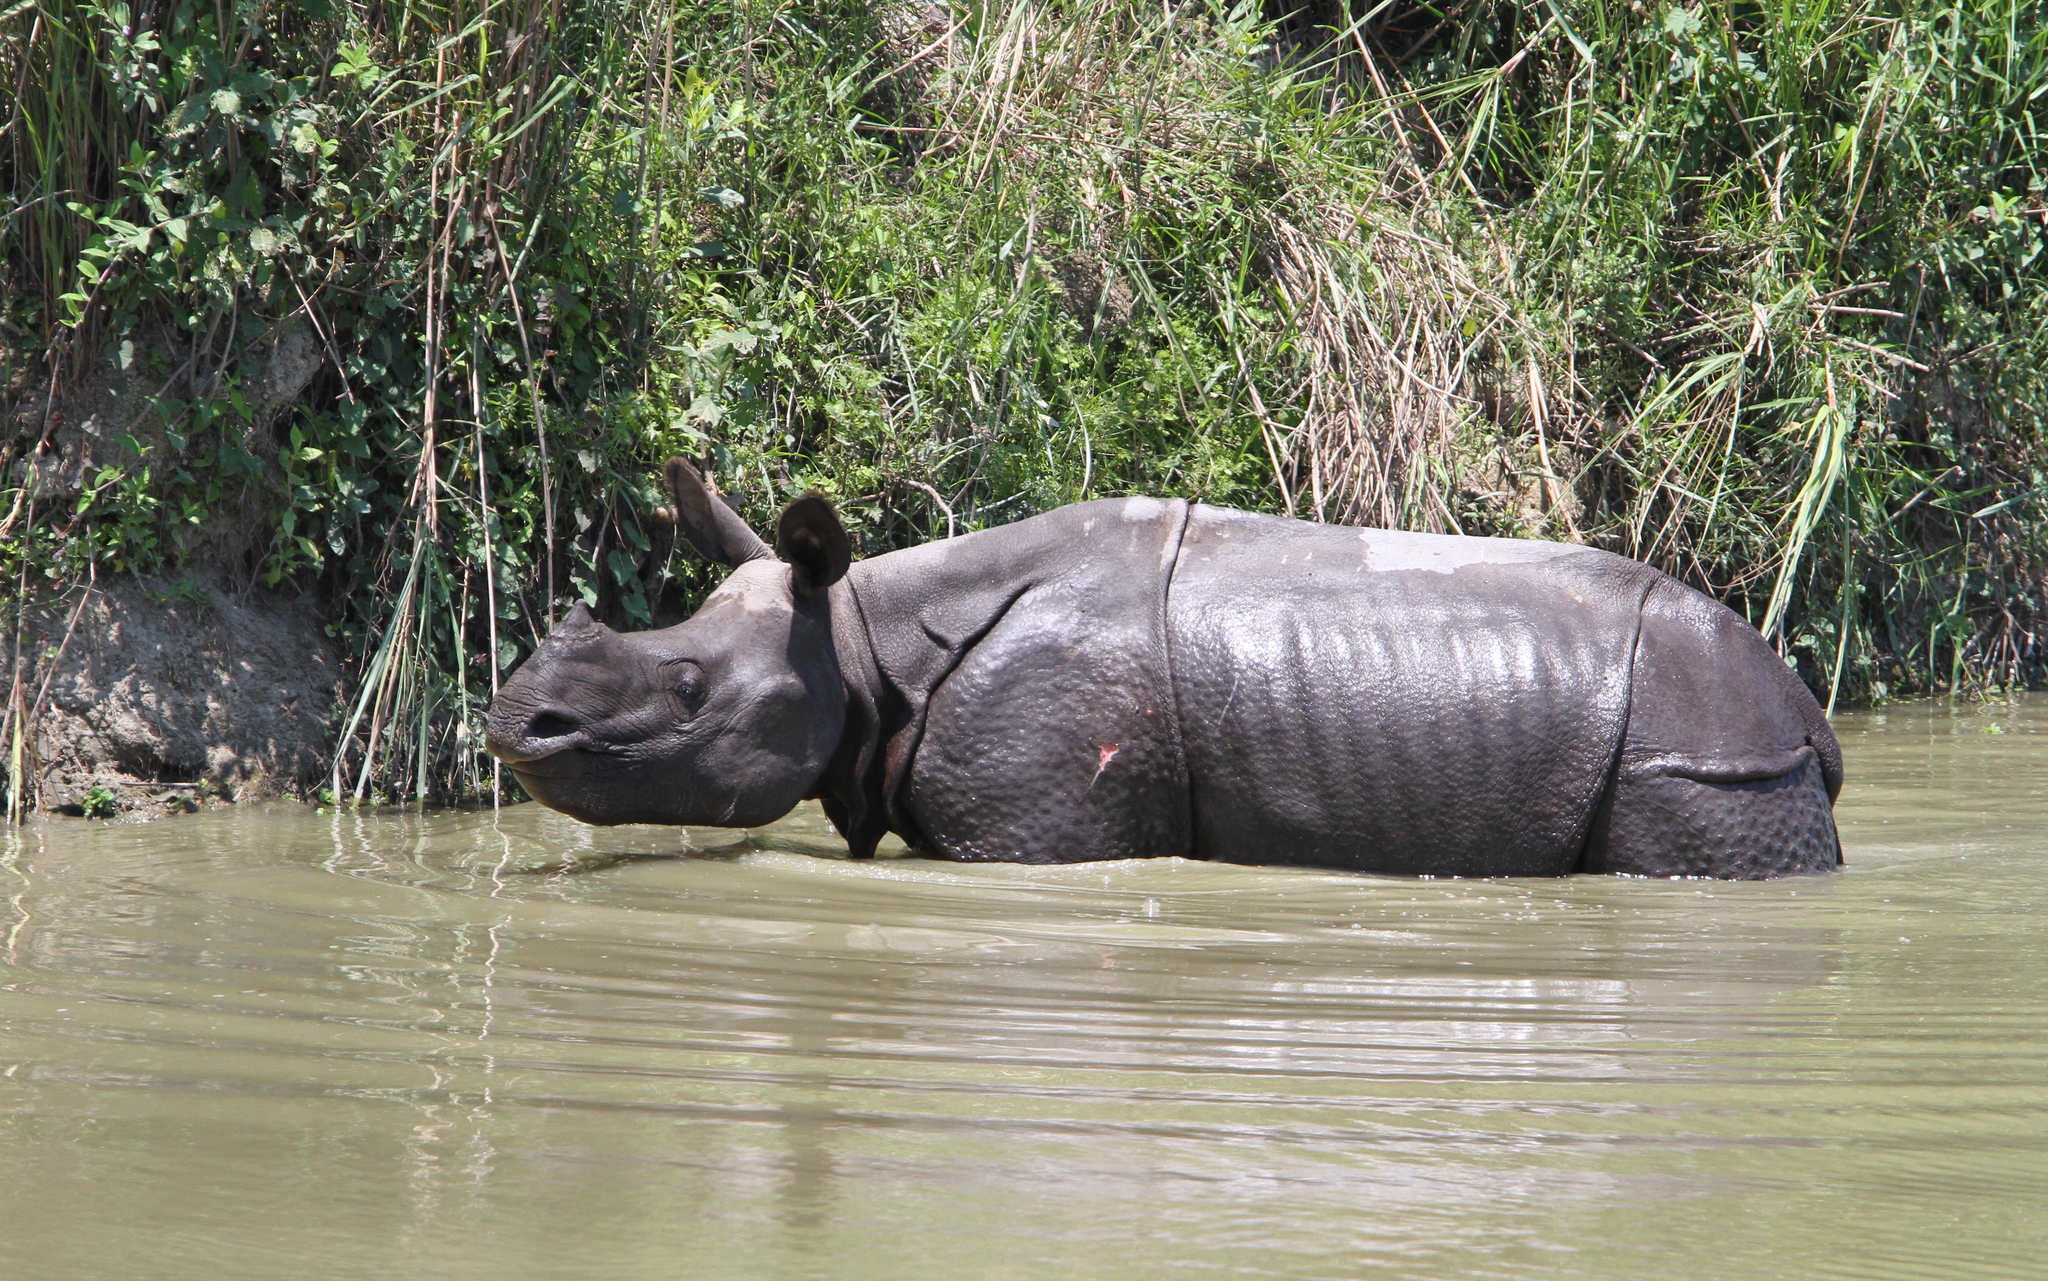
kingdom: Animalia
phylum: Chordata
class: Mammalia
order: Perissodactyla
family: Rhinocerotidae
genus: Rhinoceros
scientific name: Rhinoceros unicornis
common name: Indian rhinoceros
